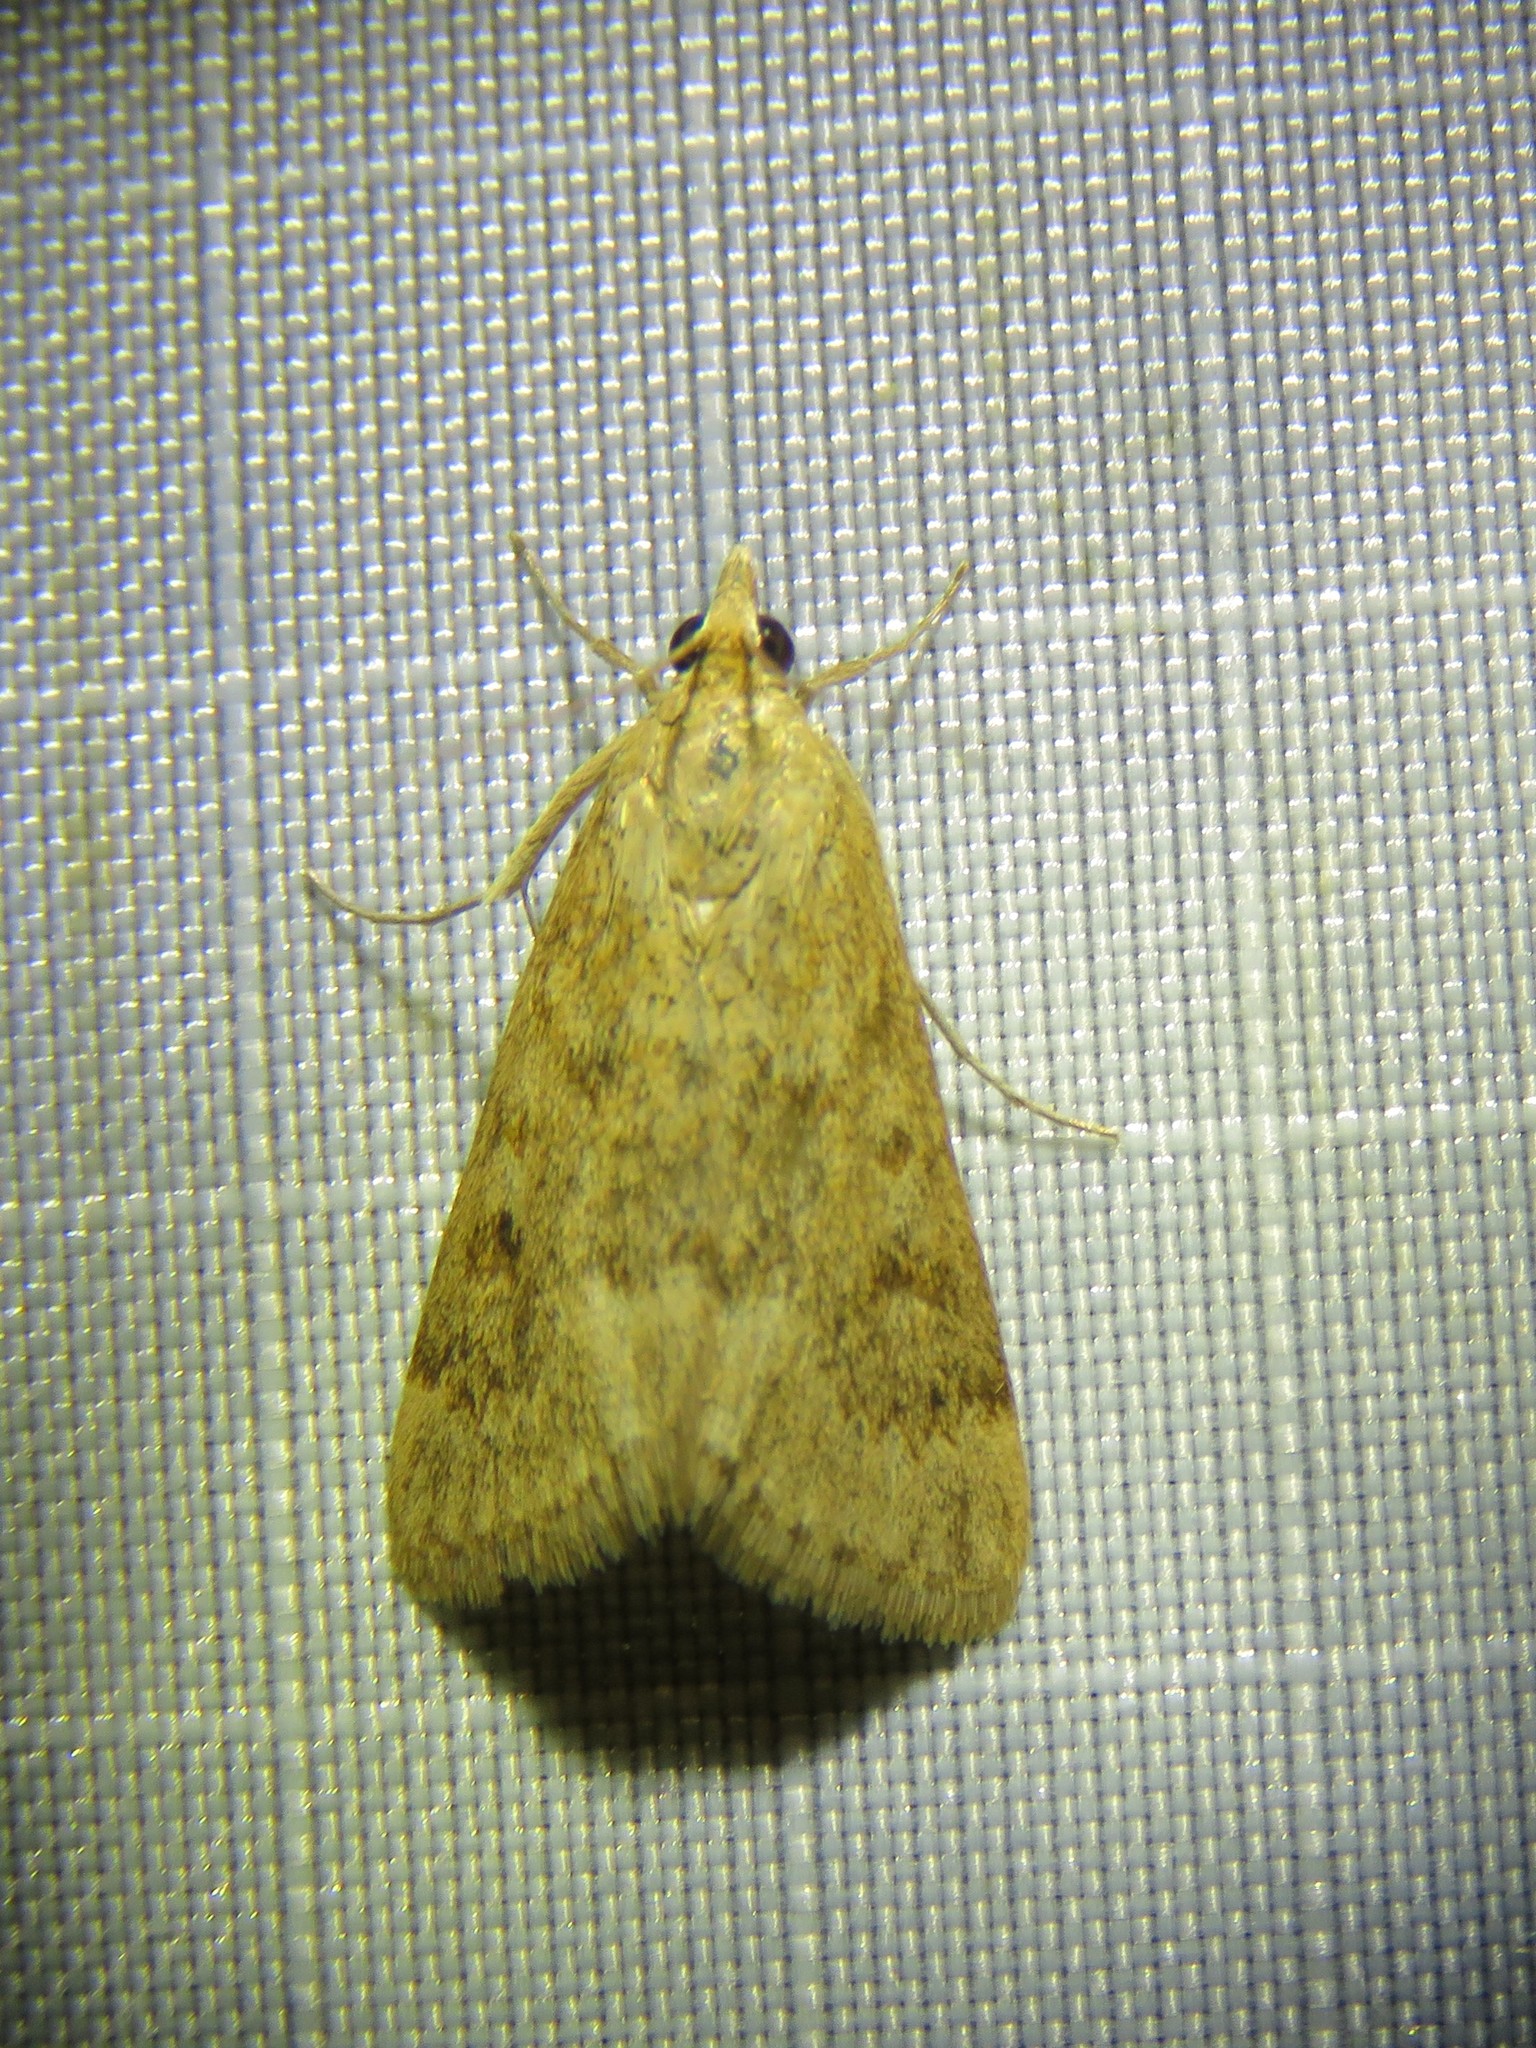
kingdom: Animalia
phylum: Arthropoda
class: Insecta
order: Lepidoptera
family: Crambidae
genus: Achyra
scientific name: Achyra rantalis
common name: Garden webworm
